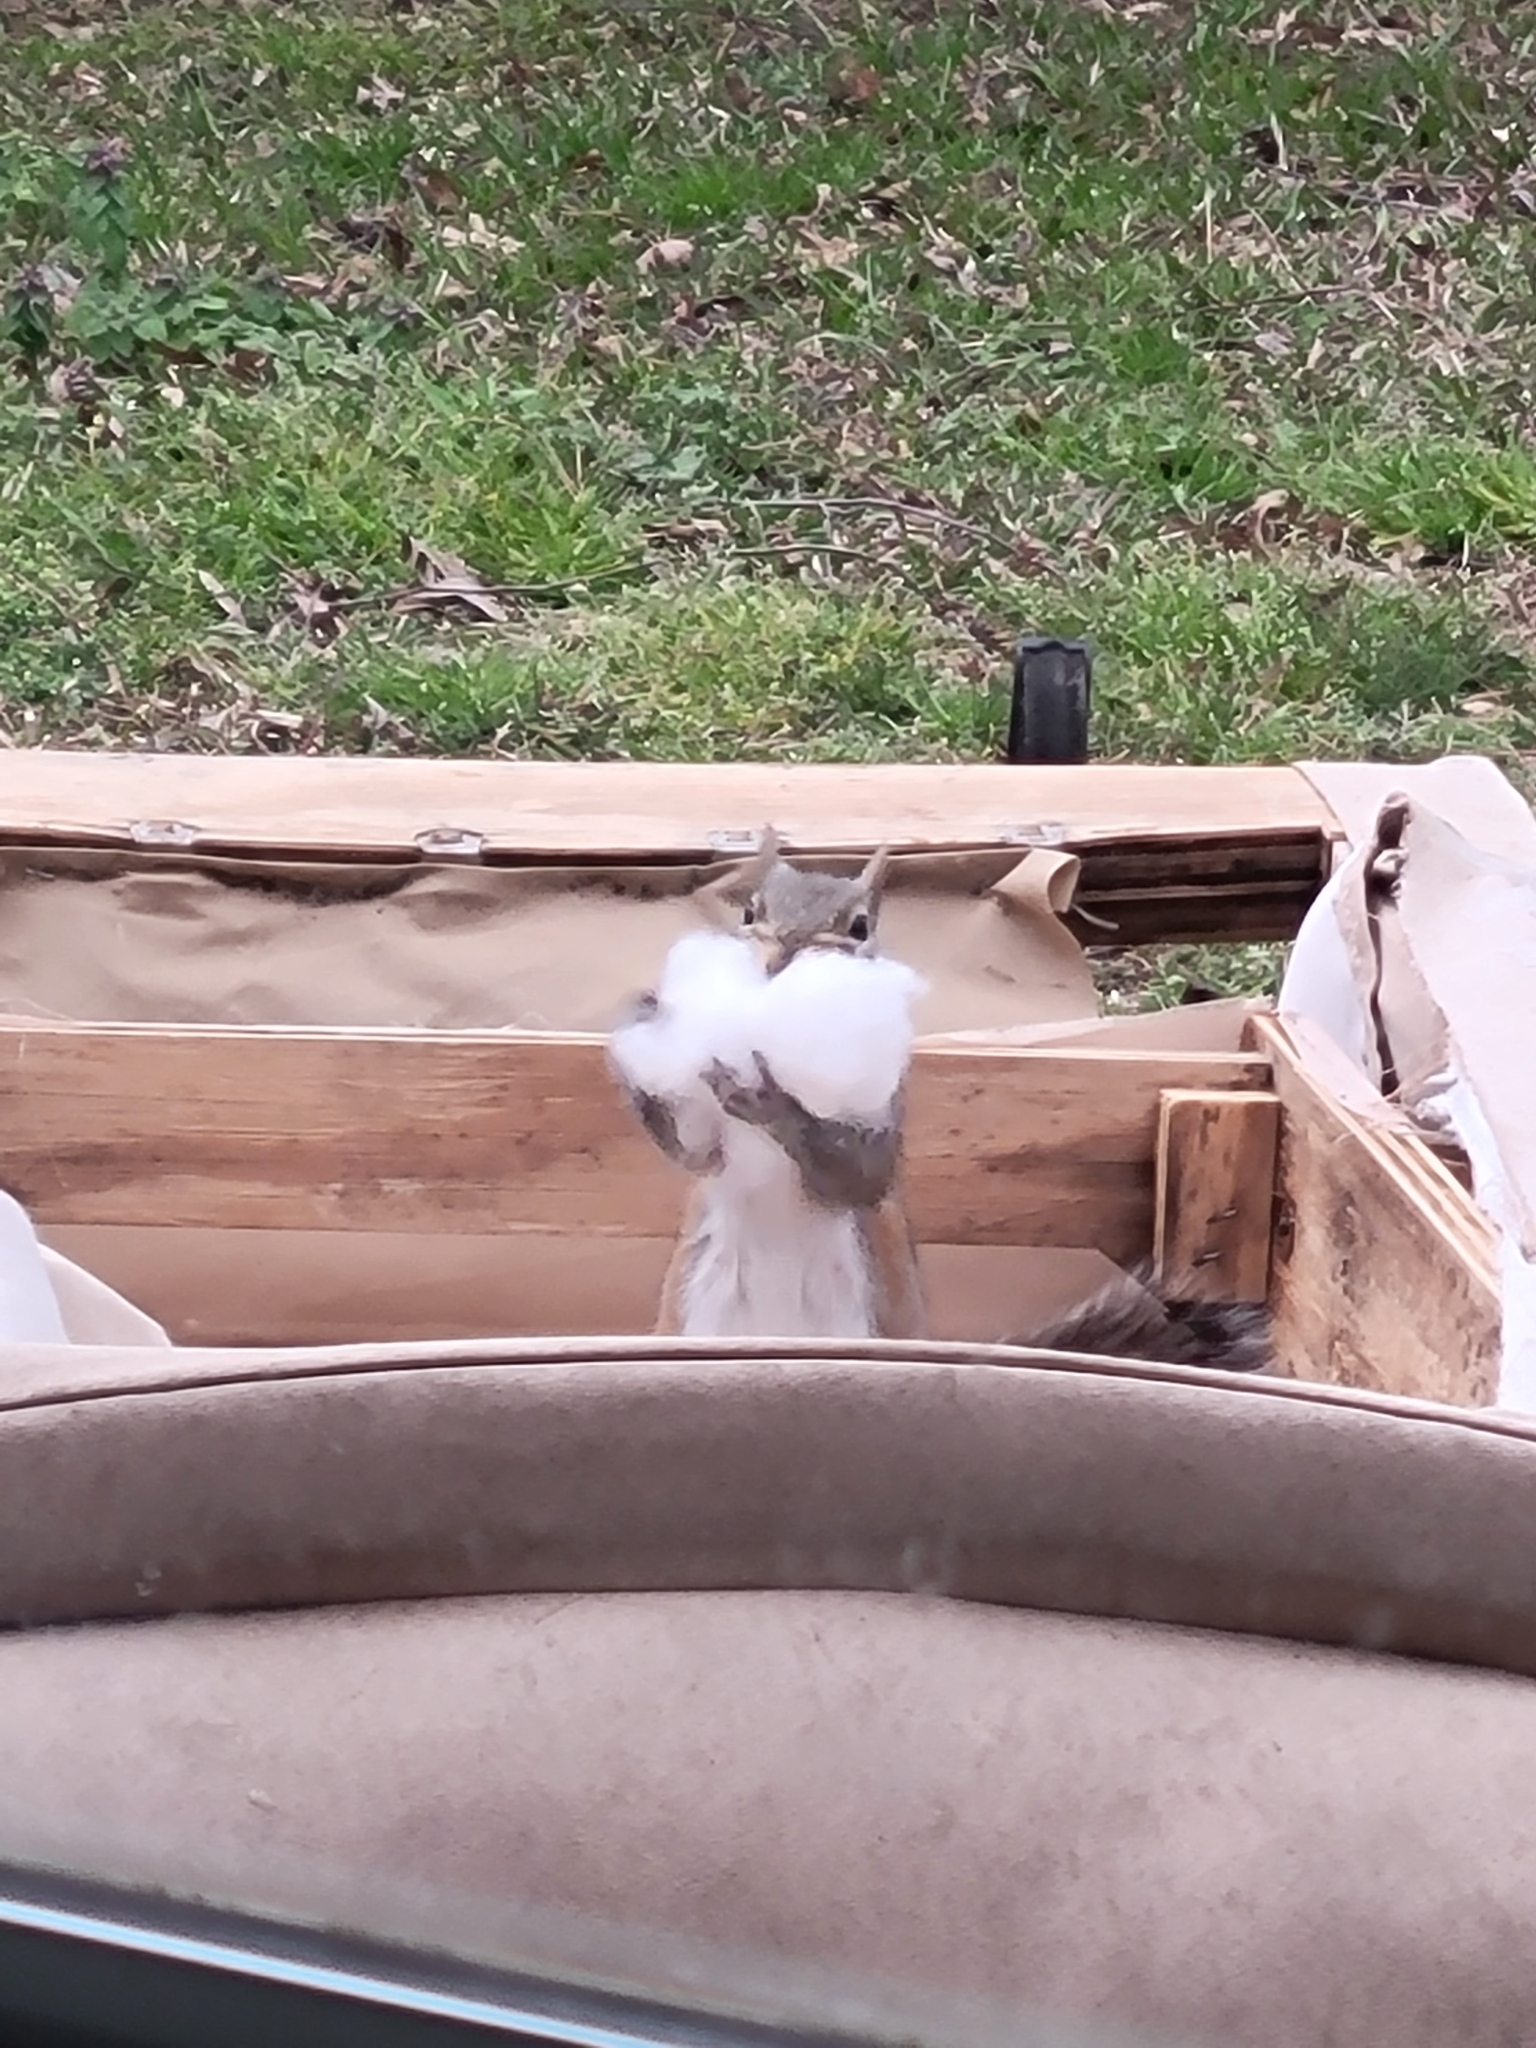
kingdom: Animalia
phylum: Chordata
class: Mammalia
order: Rodentia
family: Sciuridae
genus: Sciurus
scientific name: Sciurus carolinensis
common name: Eastern gray squirrel
